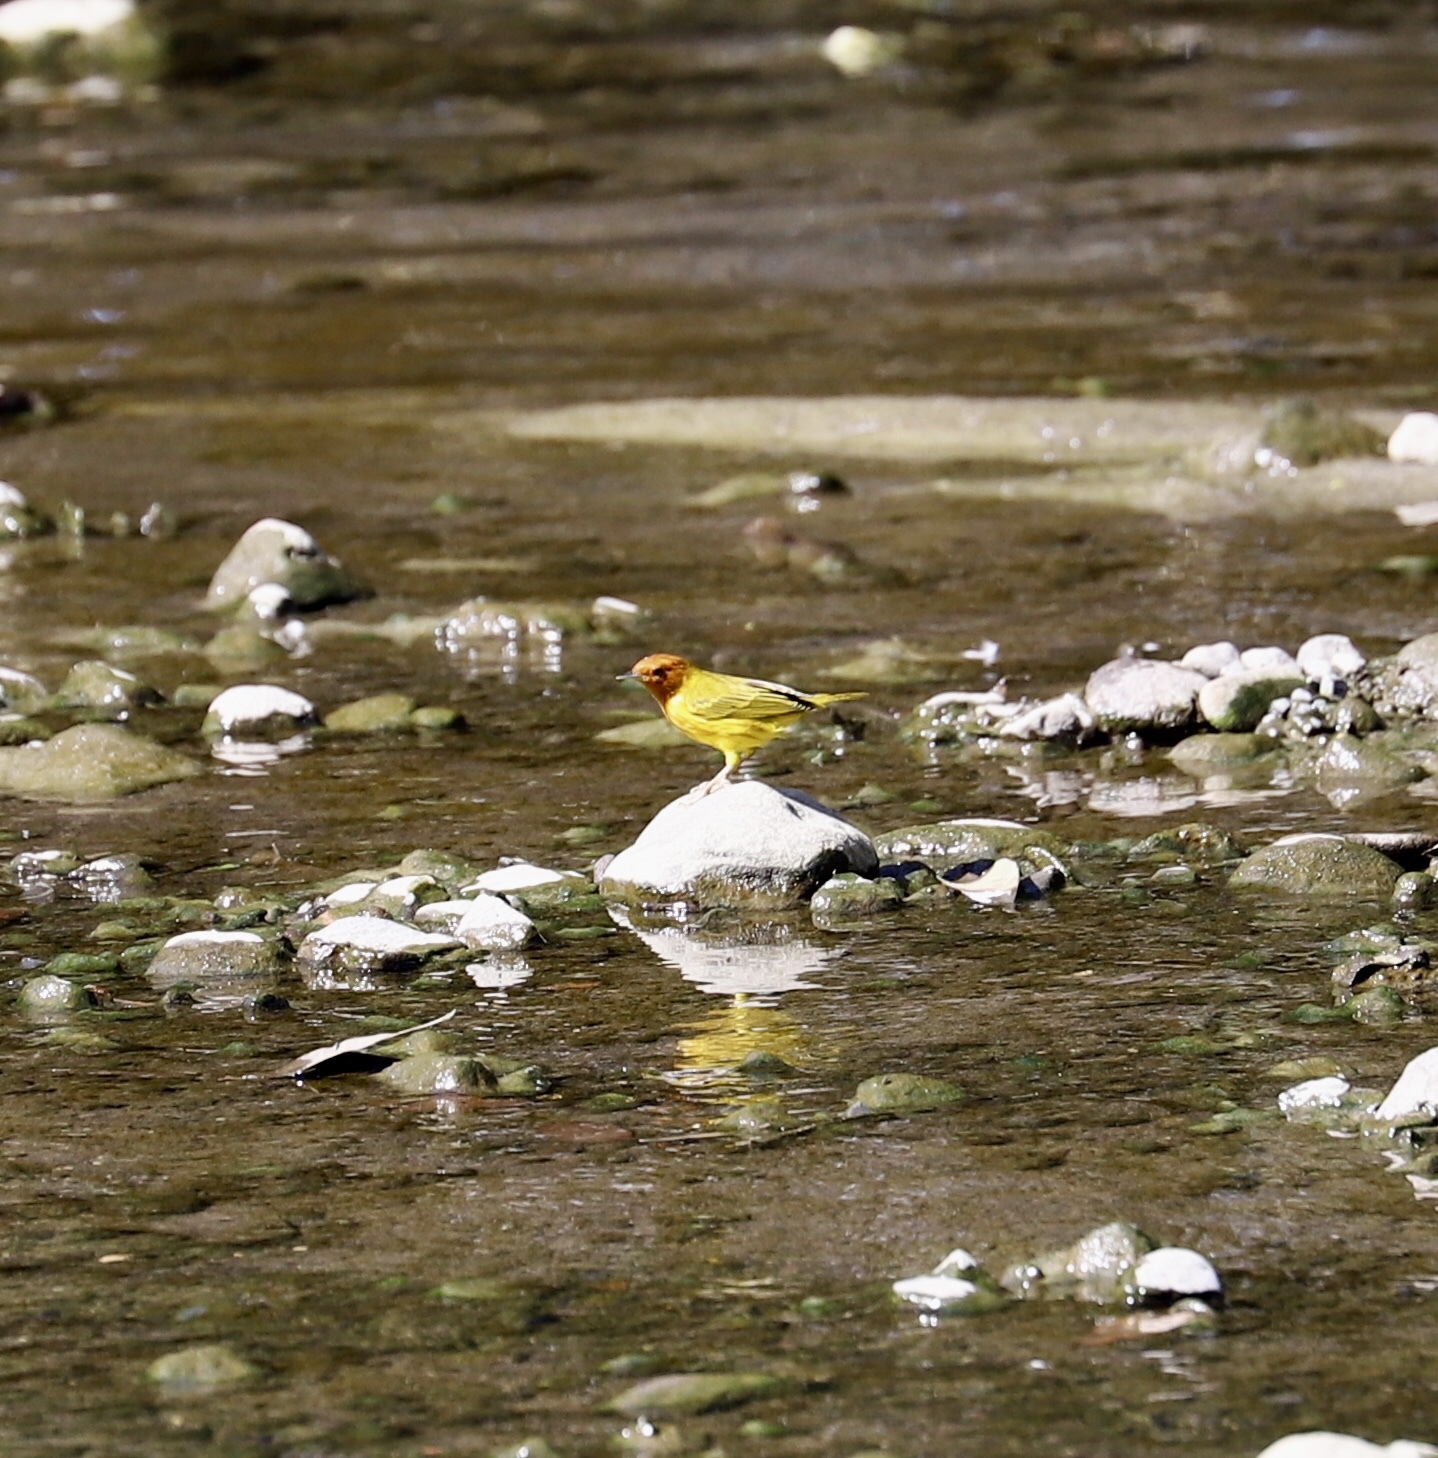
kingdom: Animalia
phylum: Chordata
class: Aves
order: Passeriformes
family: Parulidae
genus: Setophaga
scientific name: Setophaga petechia
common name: Yellow warbler
